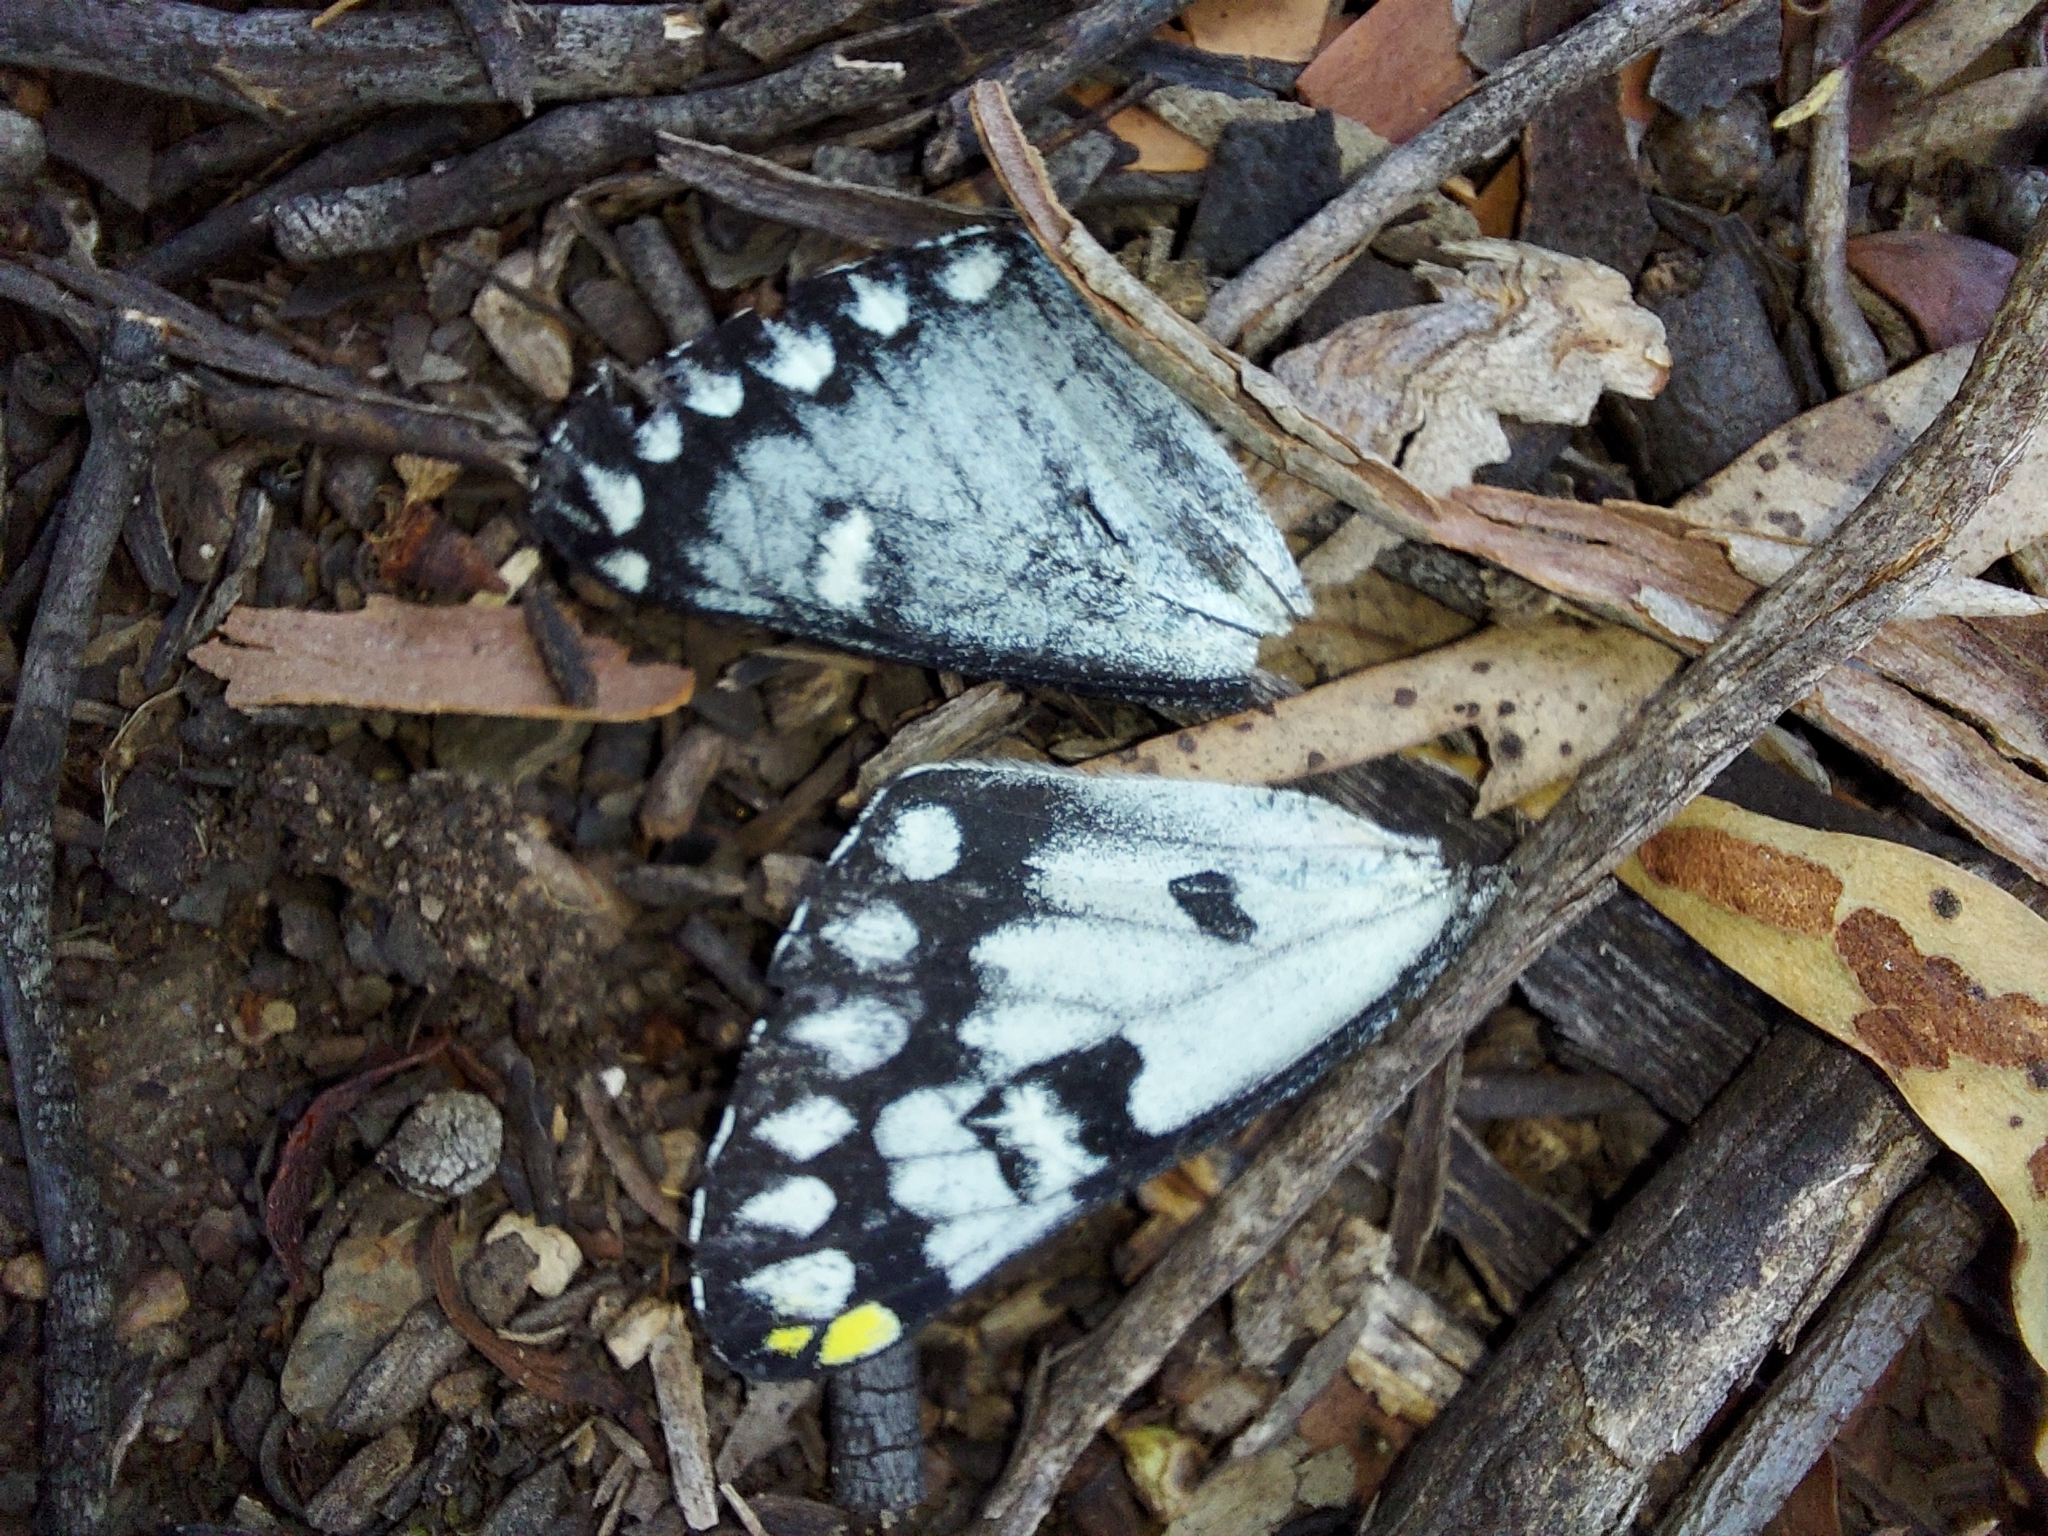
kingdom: Animalia
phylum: Arthropoda
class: Insecta
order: Lepidoptera
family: Pieridae
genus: Delias
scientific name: Delias aganippe
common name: Red-spotted jezebel
